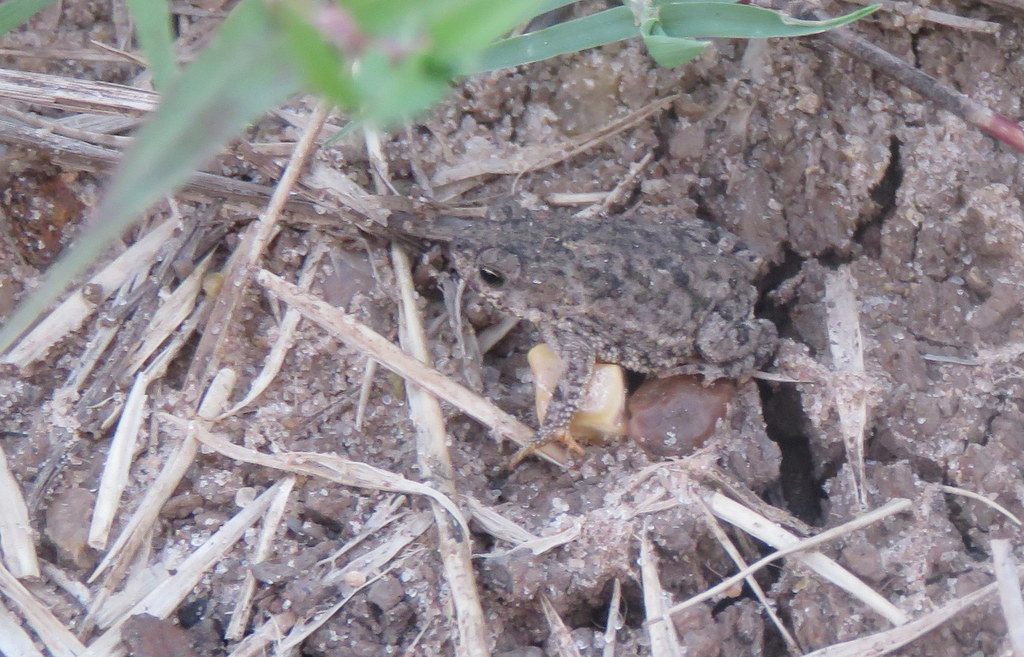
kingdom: Animalia
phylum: Chordata
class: Amphibia
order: Anura
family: Bufonidae
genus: Rhinella
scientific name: Rhinella bergi
